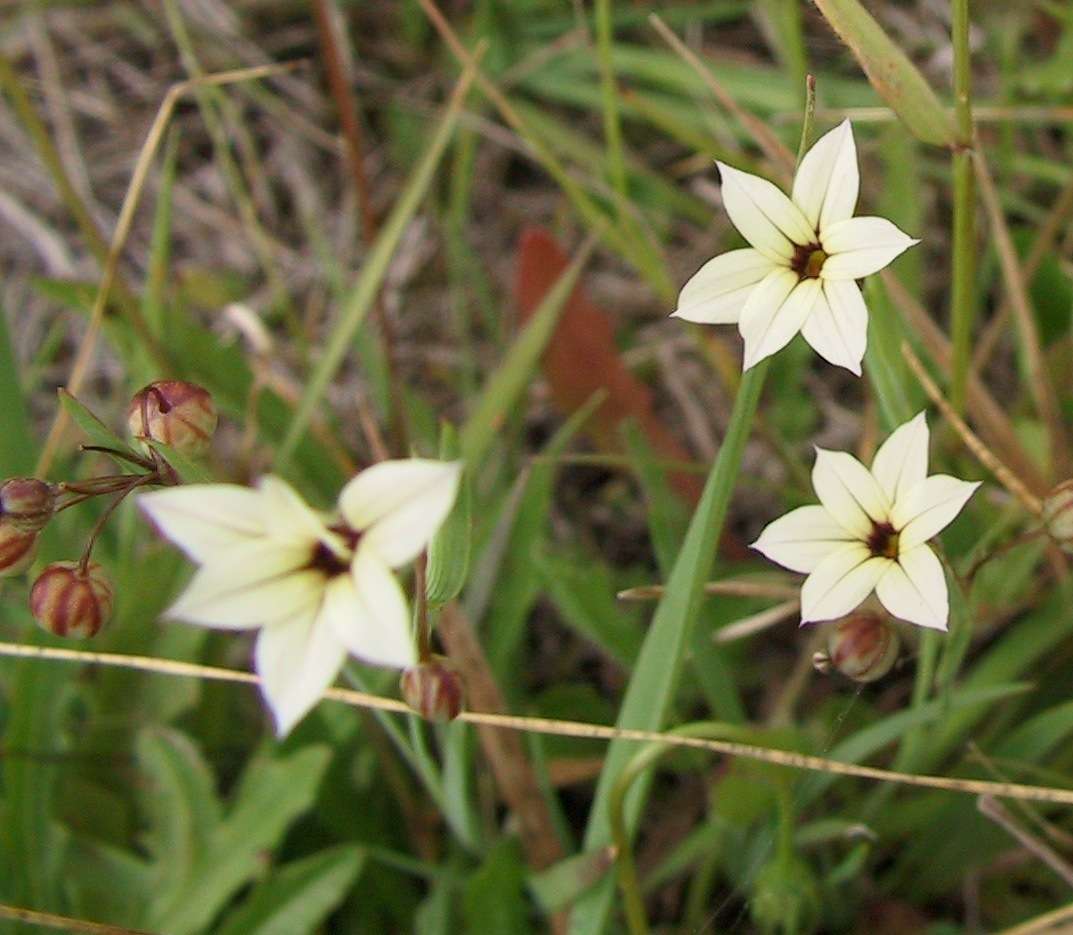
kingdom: Plantae
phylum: Tracheophyta
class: Liliopsida
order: Asparagales
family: Iridaceae
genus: Sisyrinchium
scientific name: Sisyrinchium micranthum
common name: Bermuda pigroot
